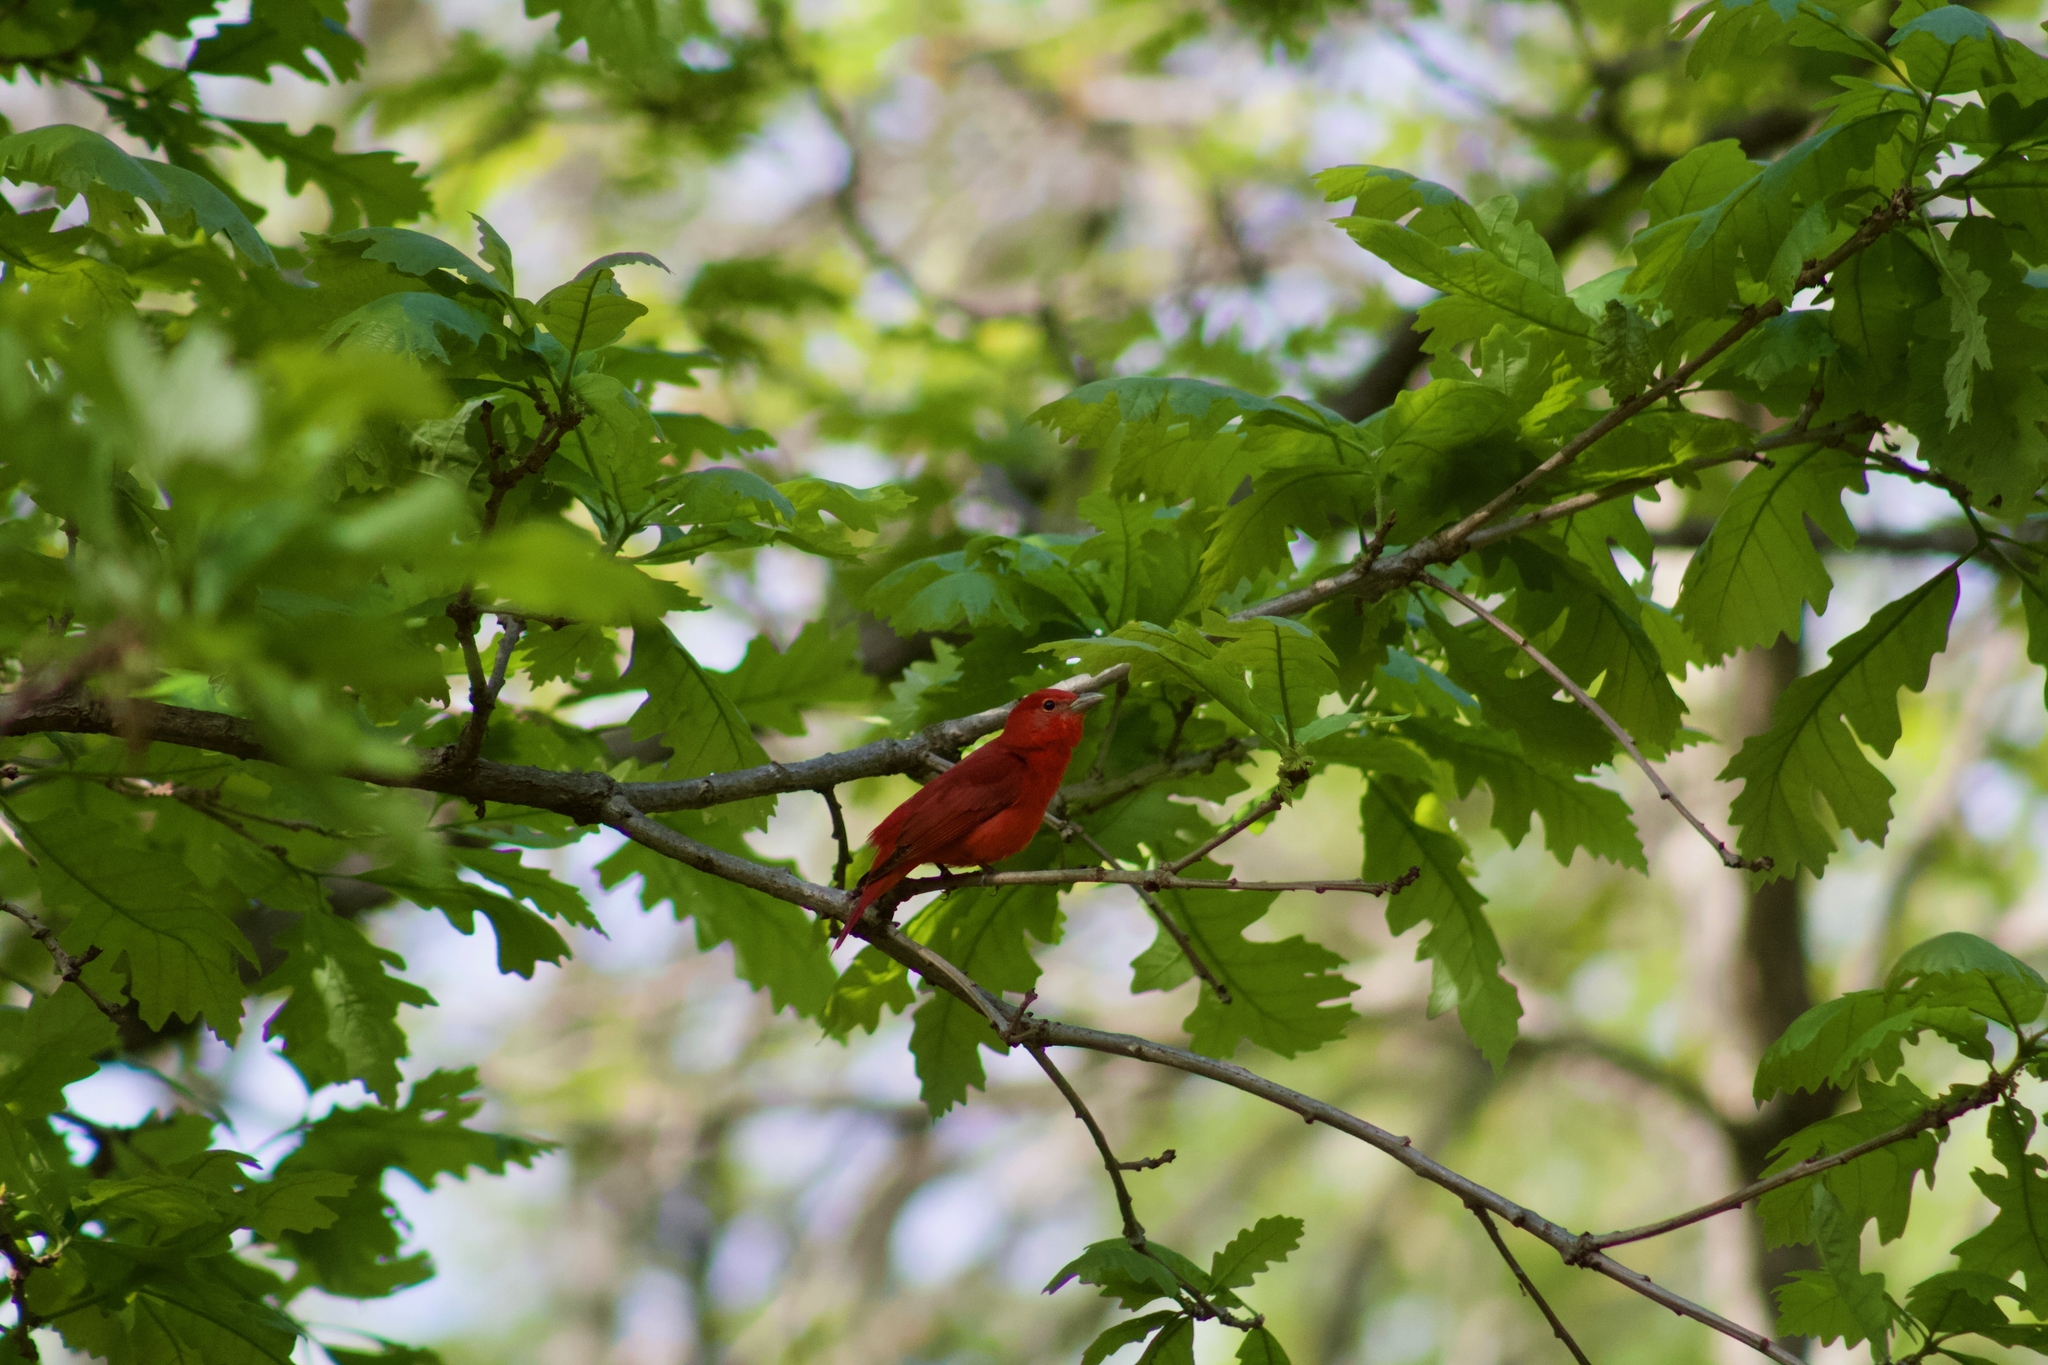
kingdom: Animalia
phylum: Chordata
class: Aves
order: Passeriformes
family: Cardinalidae
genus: Piranga
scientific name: Piranga rubra
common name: Summer tanager
